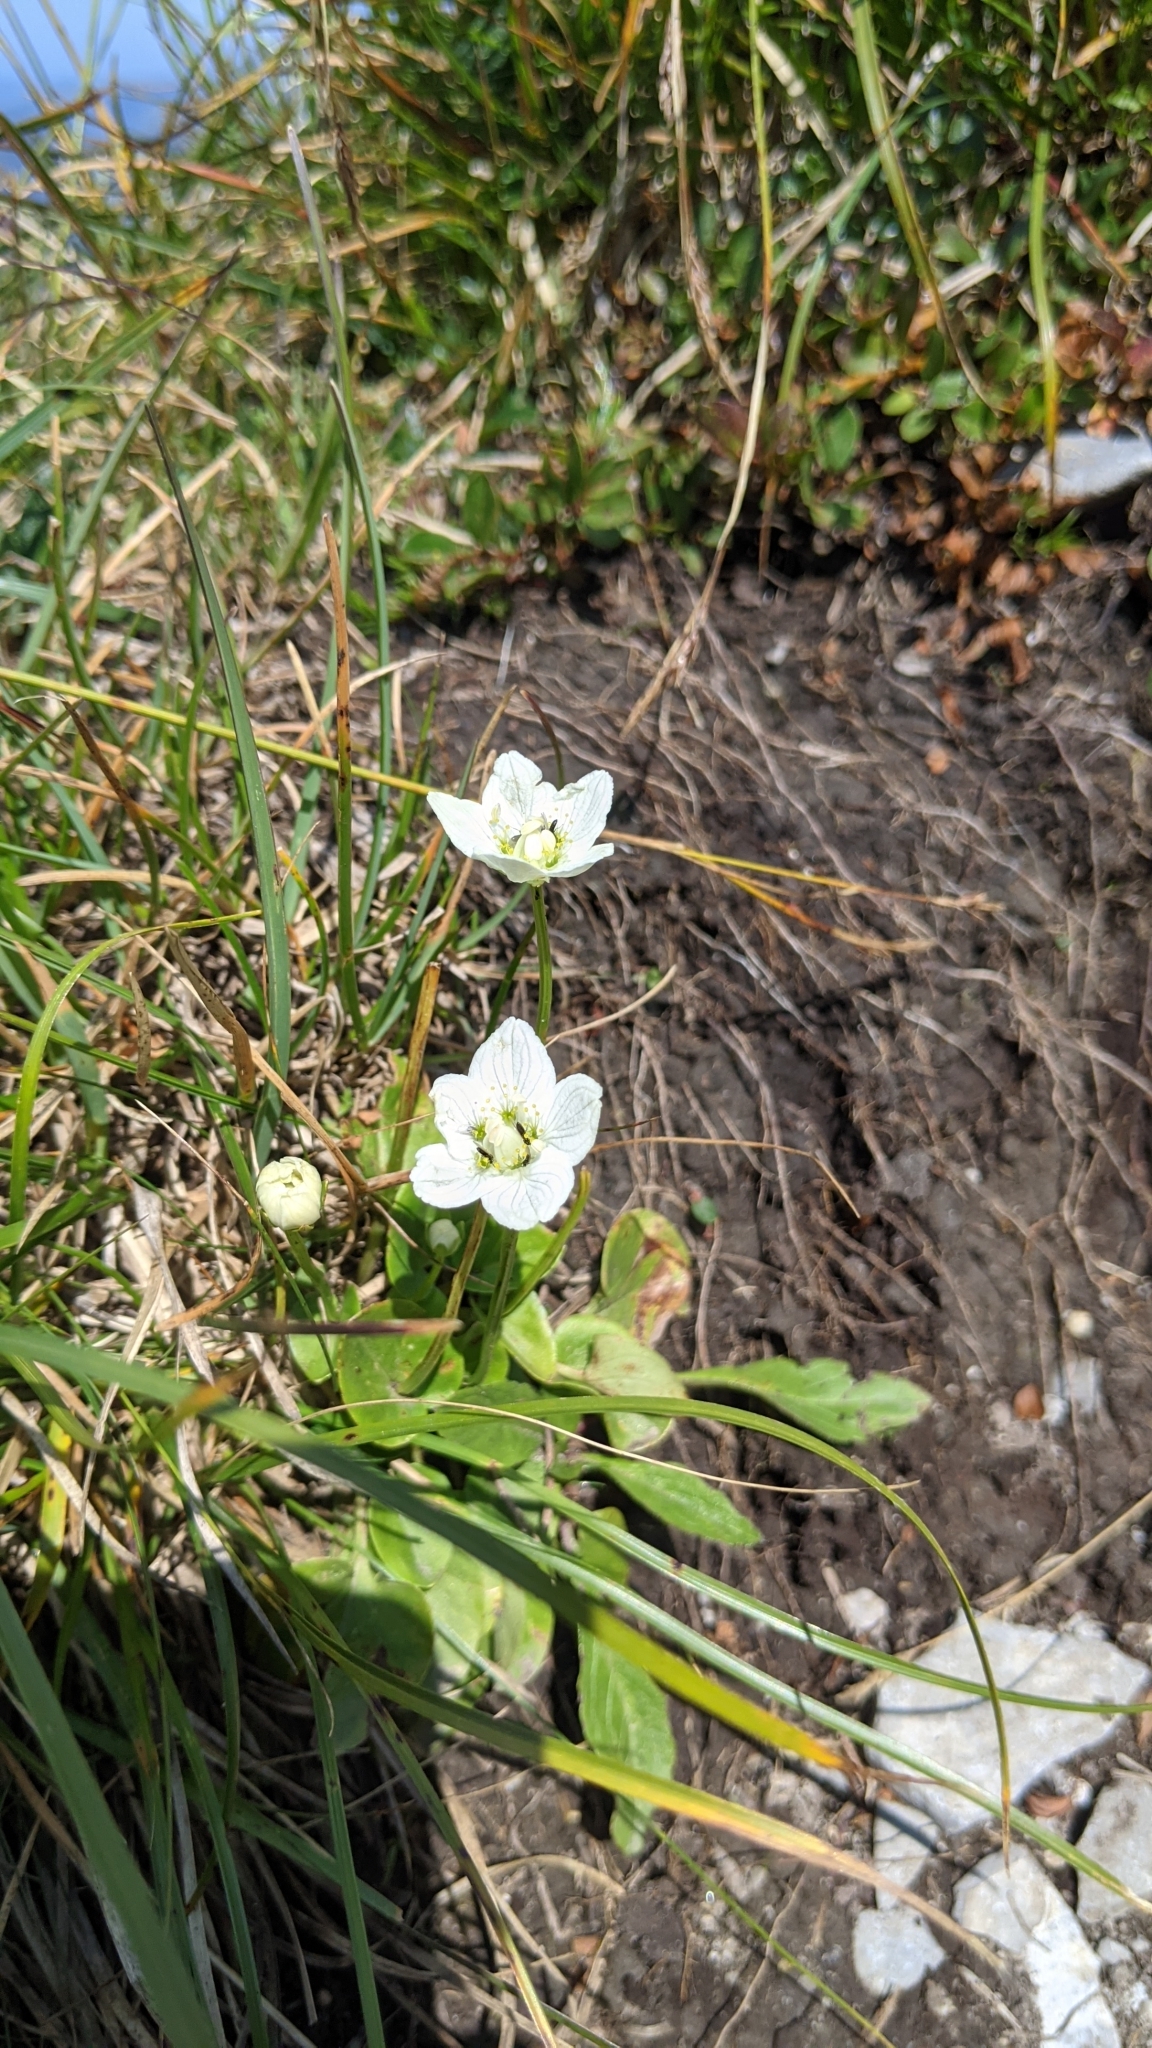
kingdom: Plantae
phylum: Tracheophyta
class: Magnoliopsida
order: Celastrales
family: Parnassiaceae
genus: Parnassia
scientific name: Parnassia palustris
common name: Grass-of-parnassus
